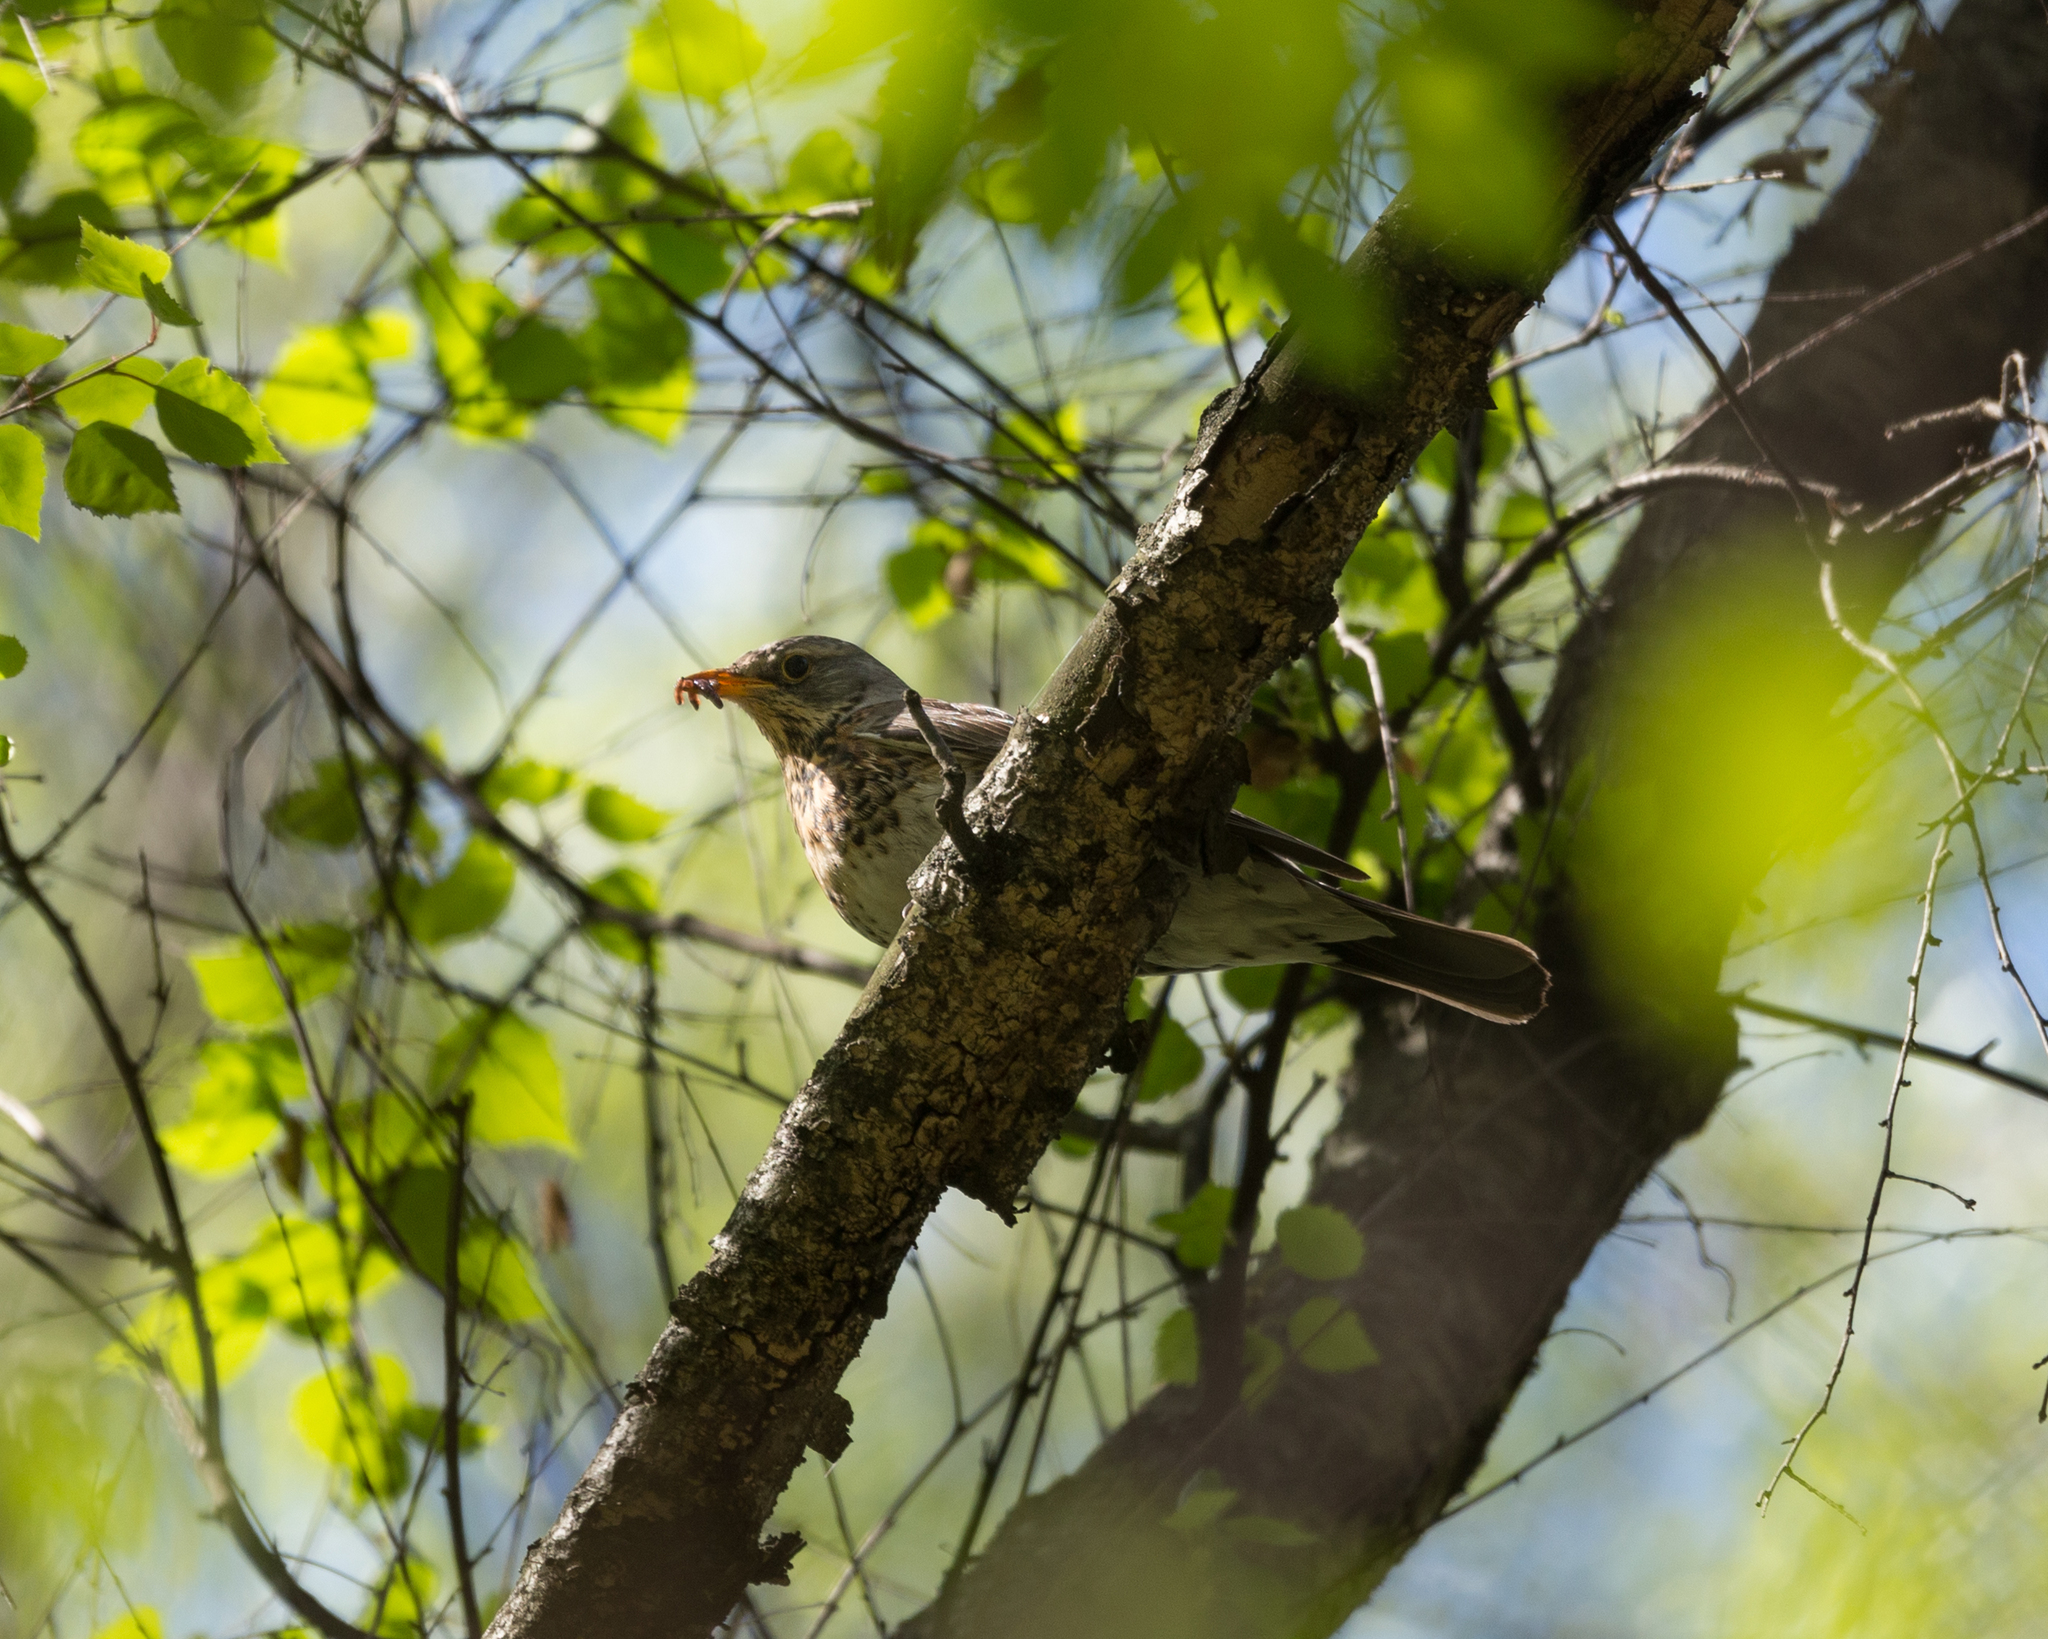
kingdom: Animalia
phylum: Chordata
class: Aves
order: Passeriformes
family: Turdidae
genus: Turdus
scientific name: Turdus pilaris
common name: Fieldfare
